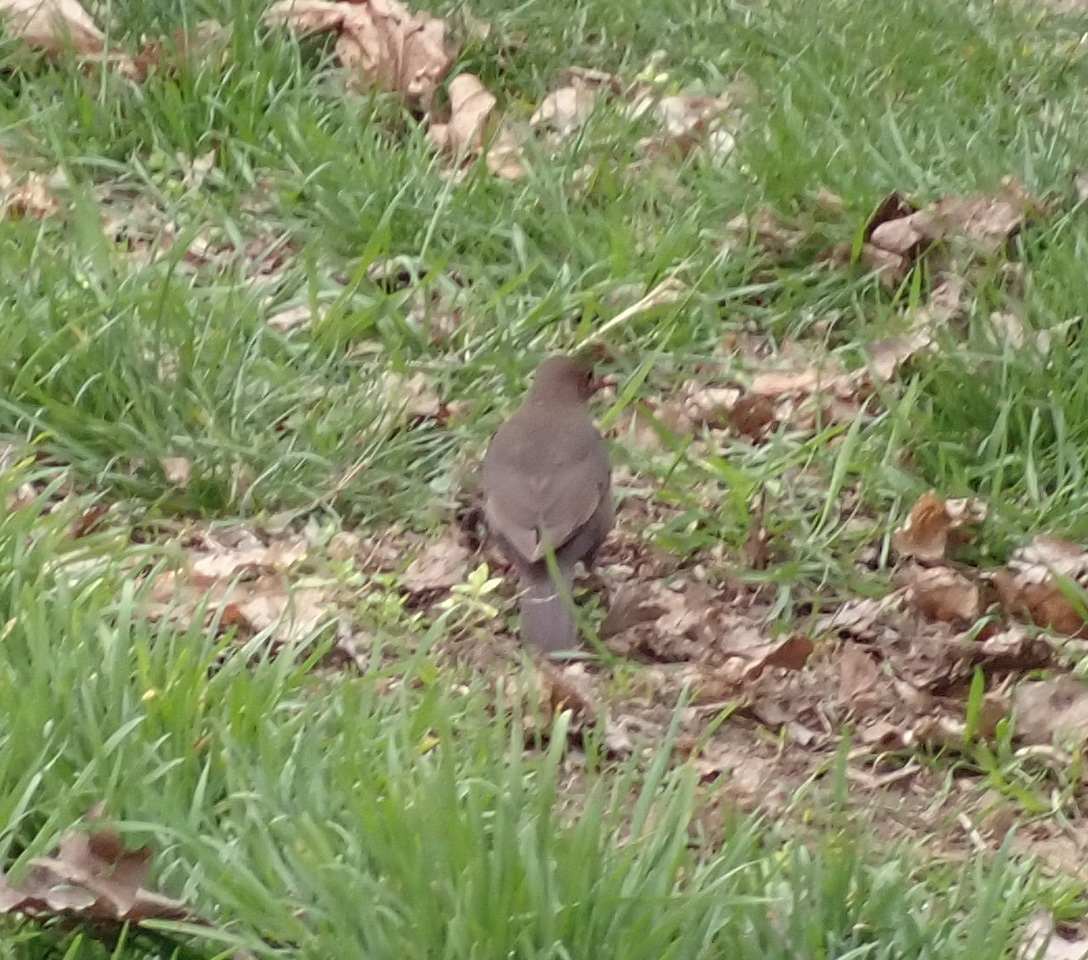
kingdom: Animalia
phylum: Chordata
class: Aves
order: Passeriformes
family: Turdidae
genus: Turdus
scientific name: Turdus merula
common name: Common blackbird
